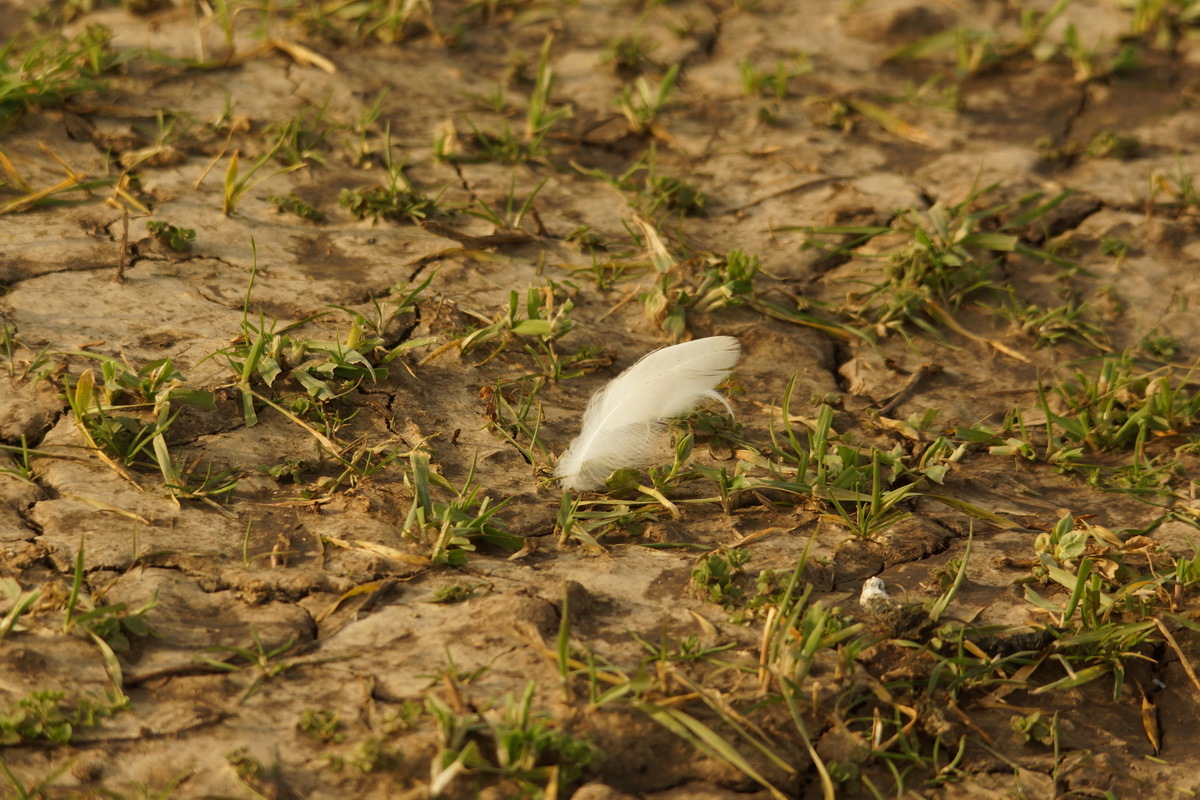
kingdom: Animalia
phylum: Chordata
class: Aves
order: Anseriformes
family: Anatidae
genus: Anser
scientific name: Anser albifrons
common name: Greater white-fronted goose
